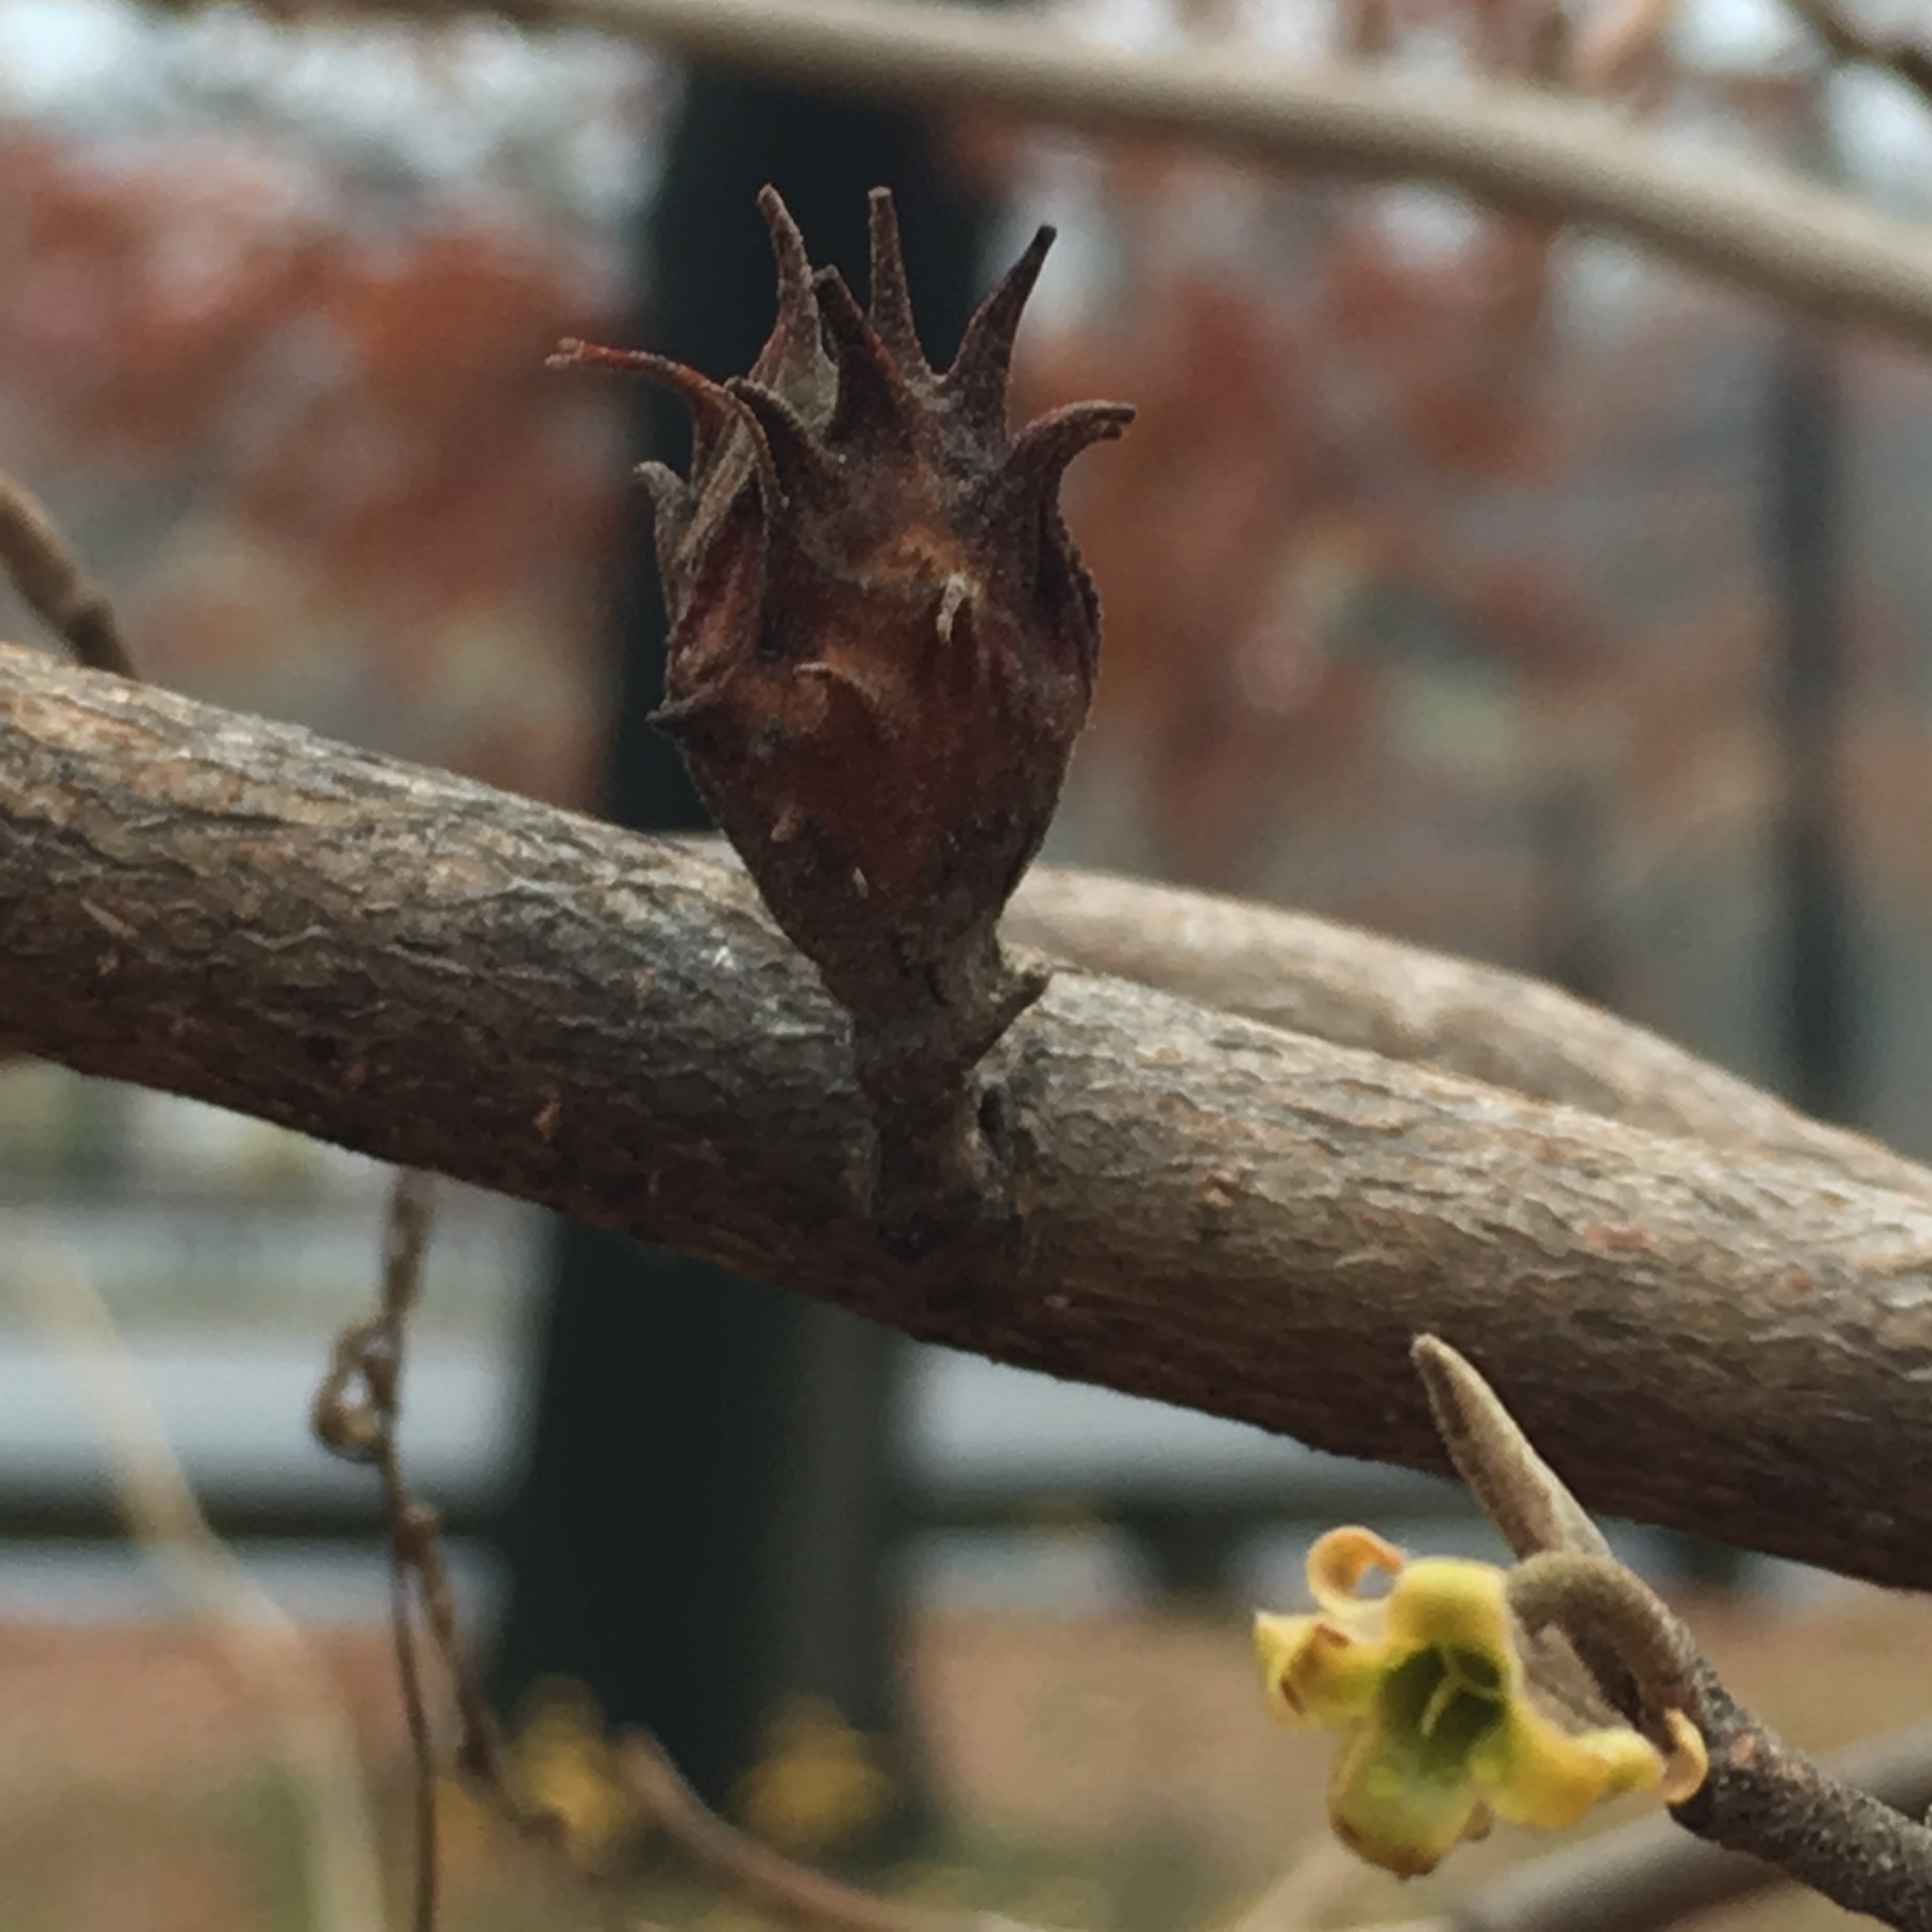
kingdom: Animalia
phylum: Arthropoda
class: Insecta
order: Hemiptera
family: Aphididae
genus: Hamamelistes
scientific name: Hamamelistes spinosus
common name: Witch hazel gall aphid
